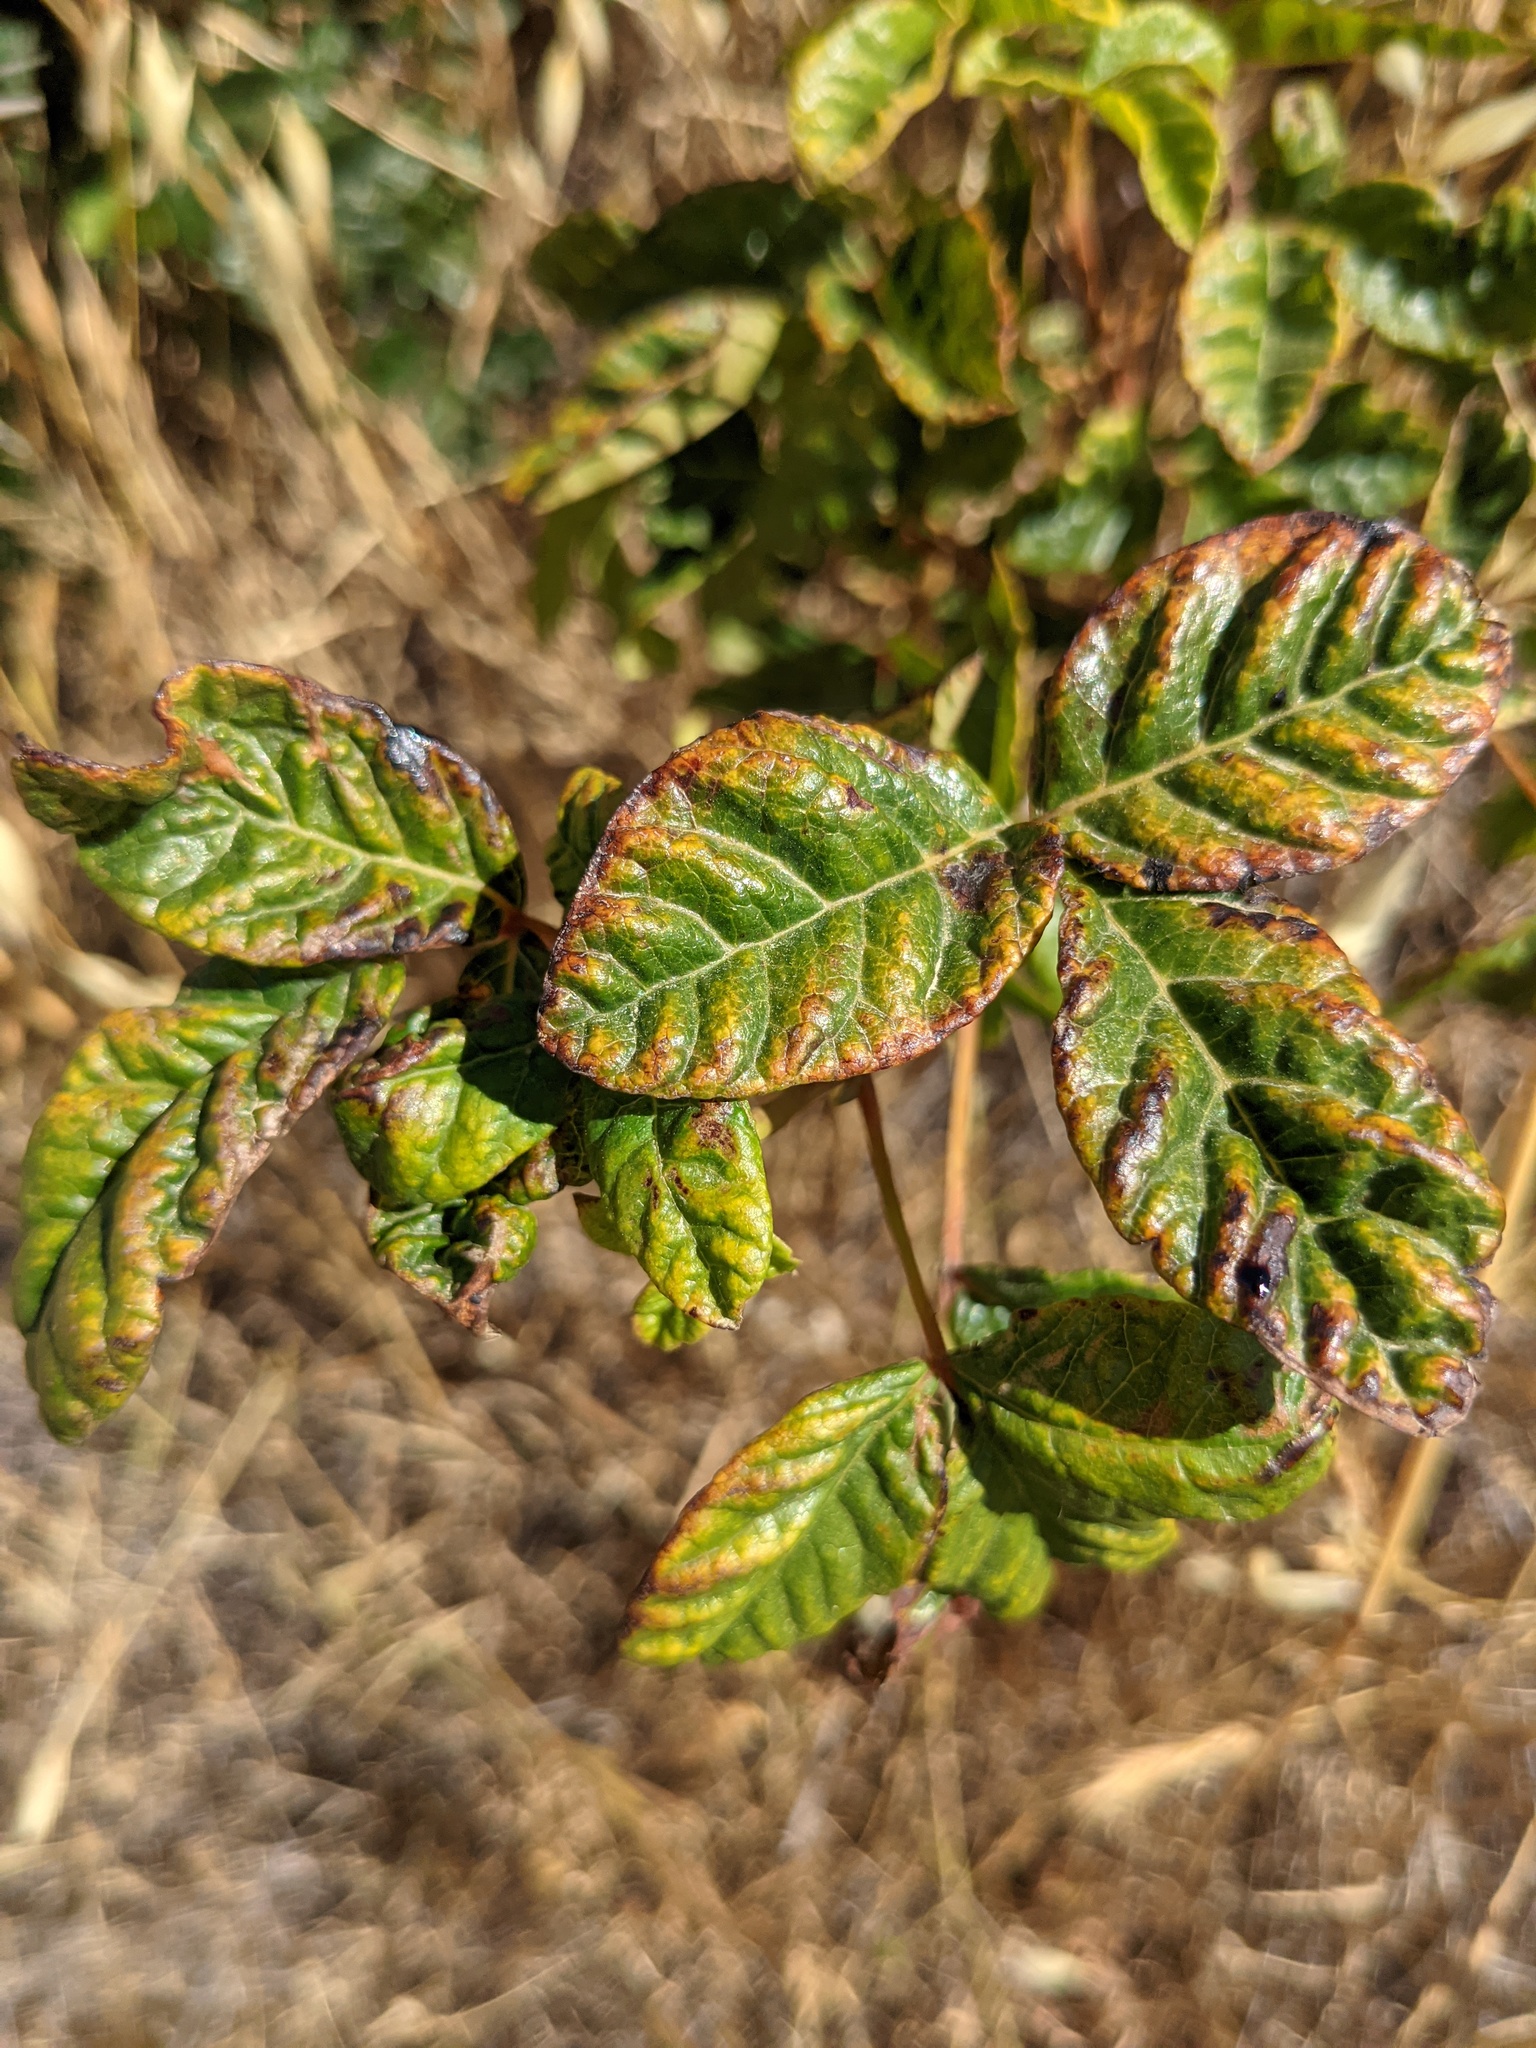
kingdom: Plantae
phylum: Tracheophyta
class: Magnoliopsida
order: Sapindales
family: Anacardiaceae
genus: Toxicodendron
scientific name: Toxicodendron diversilobum
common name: Pacific poison-oak
